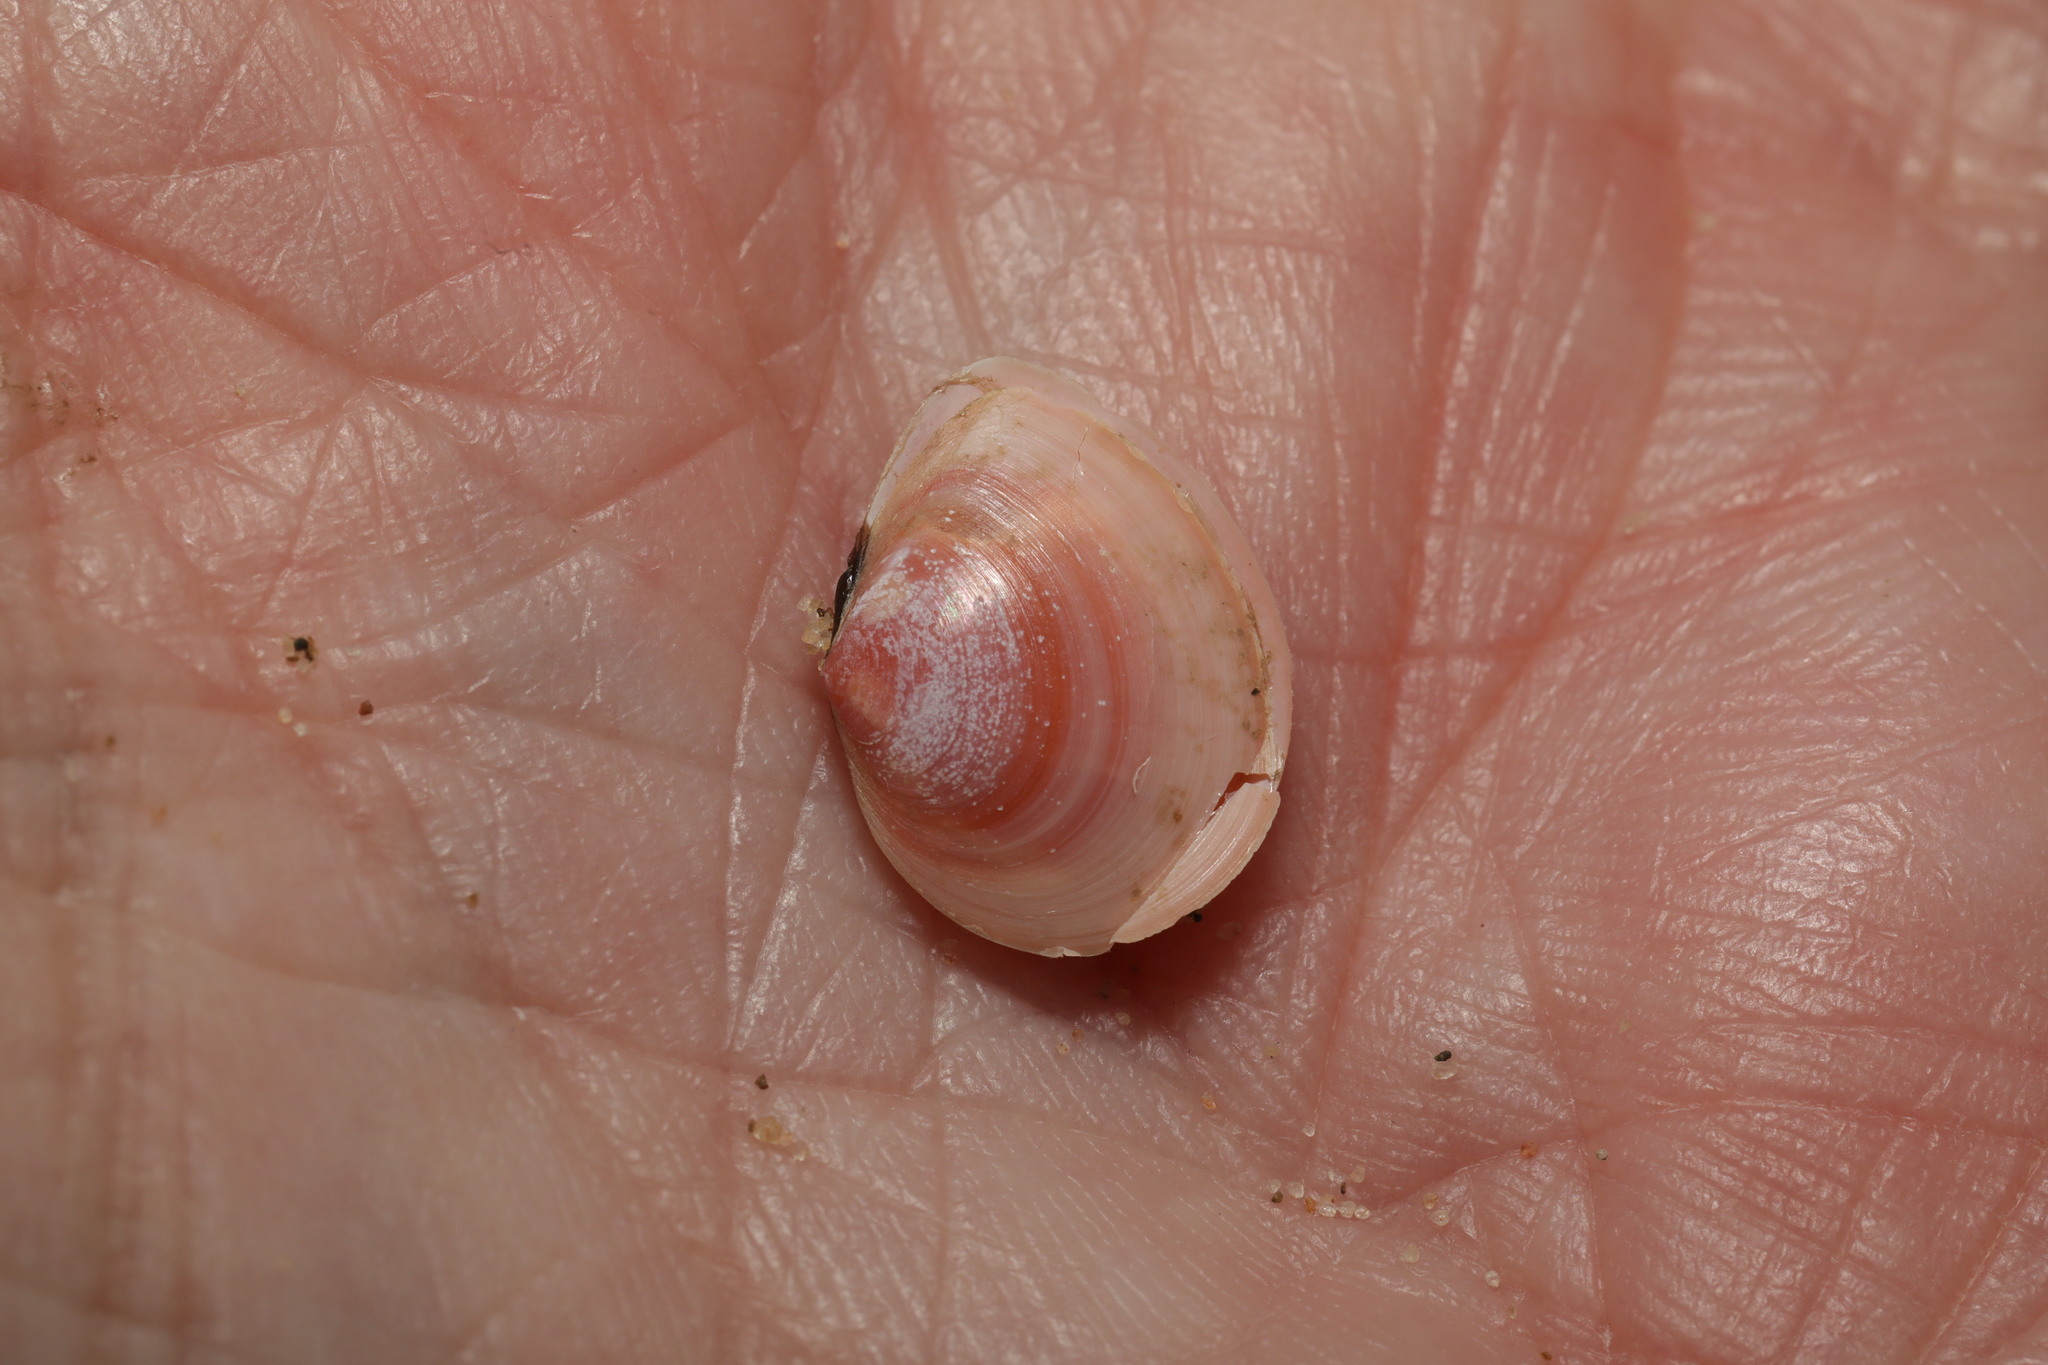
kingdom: Animalia
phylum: Mollusca
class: Bivalvia
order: Cardiida
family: Tellinidae
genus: Macoma
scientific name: Macoma balthica
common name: Baltic tellin
